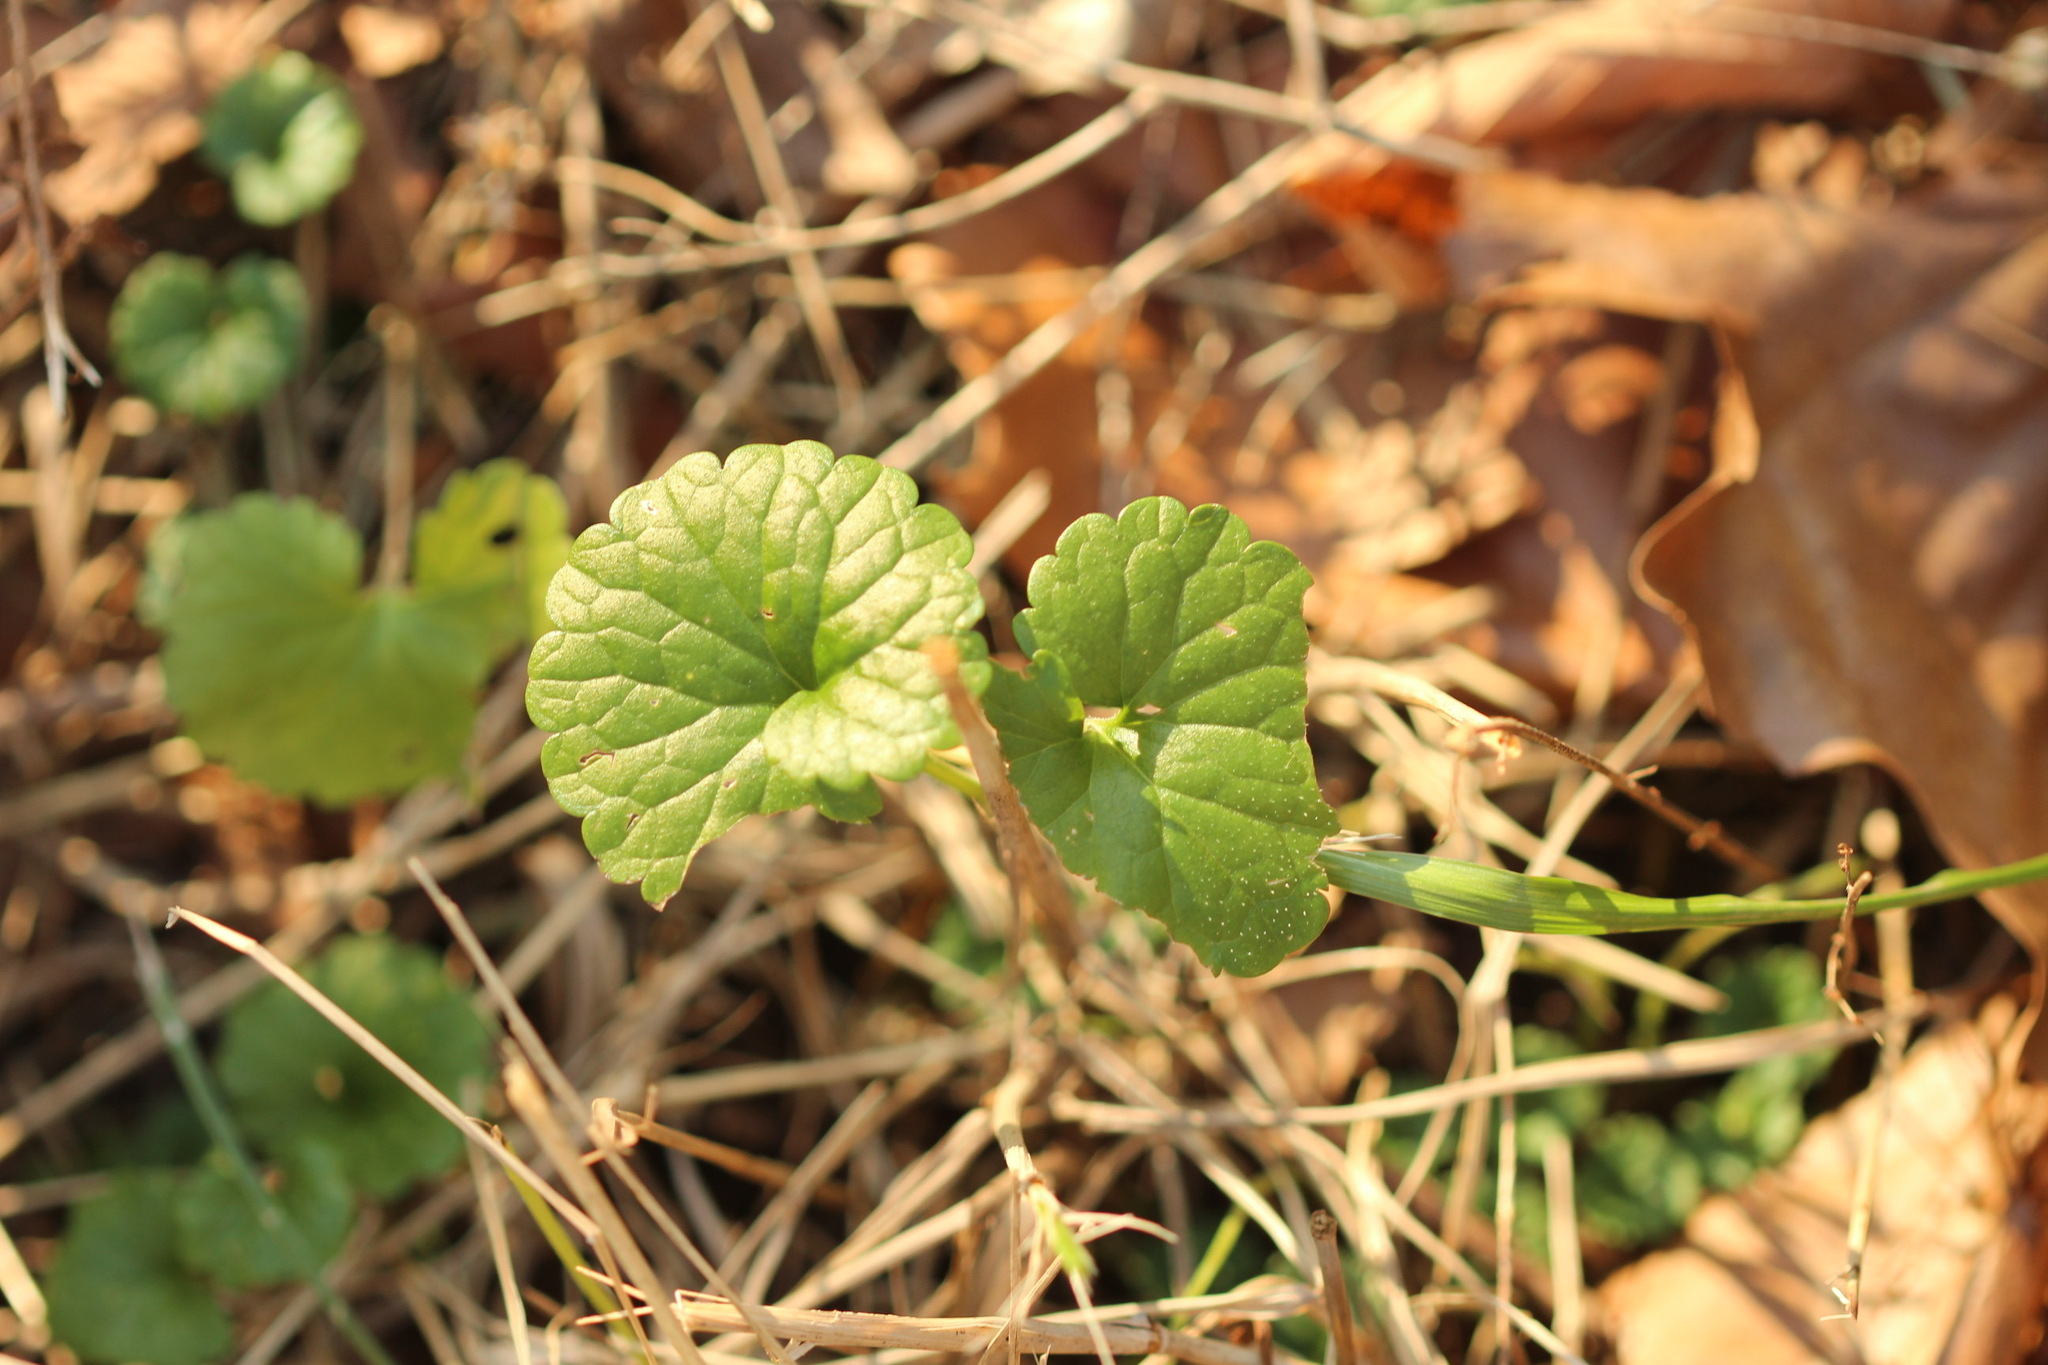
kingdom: Plantae
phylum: Tracheophyta
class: Magnoliopsida
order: Lamiales
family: Lamiaceae
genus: Glechoma
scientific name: Glechoma hederacea
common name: Ground ivy
